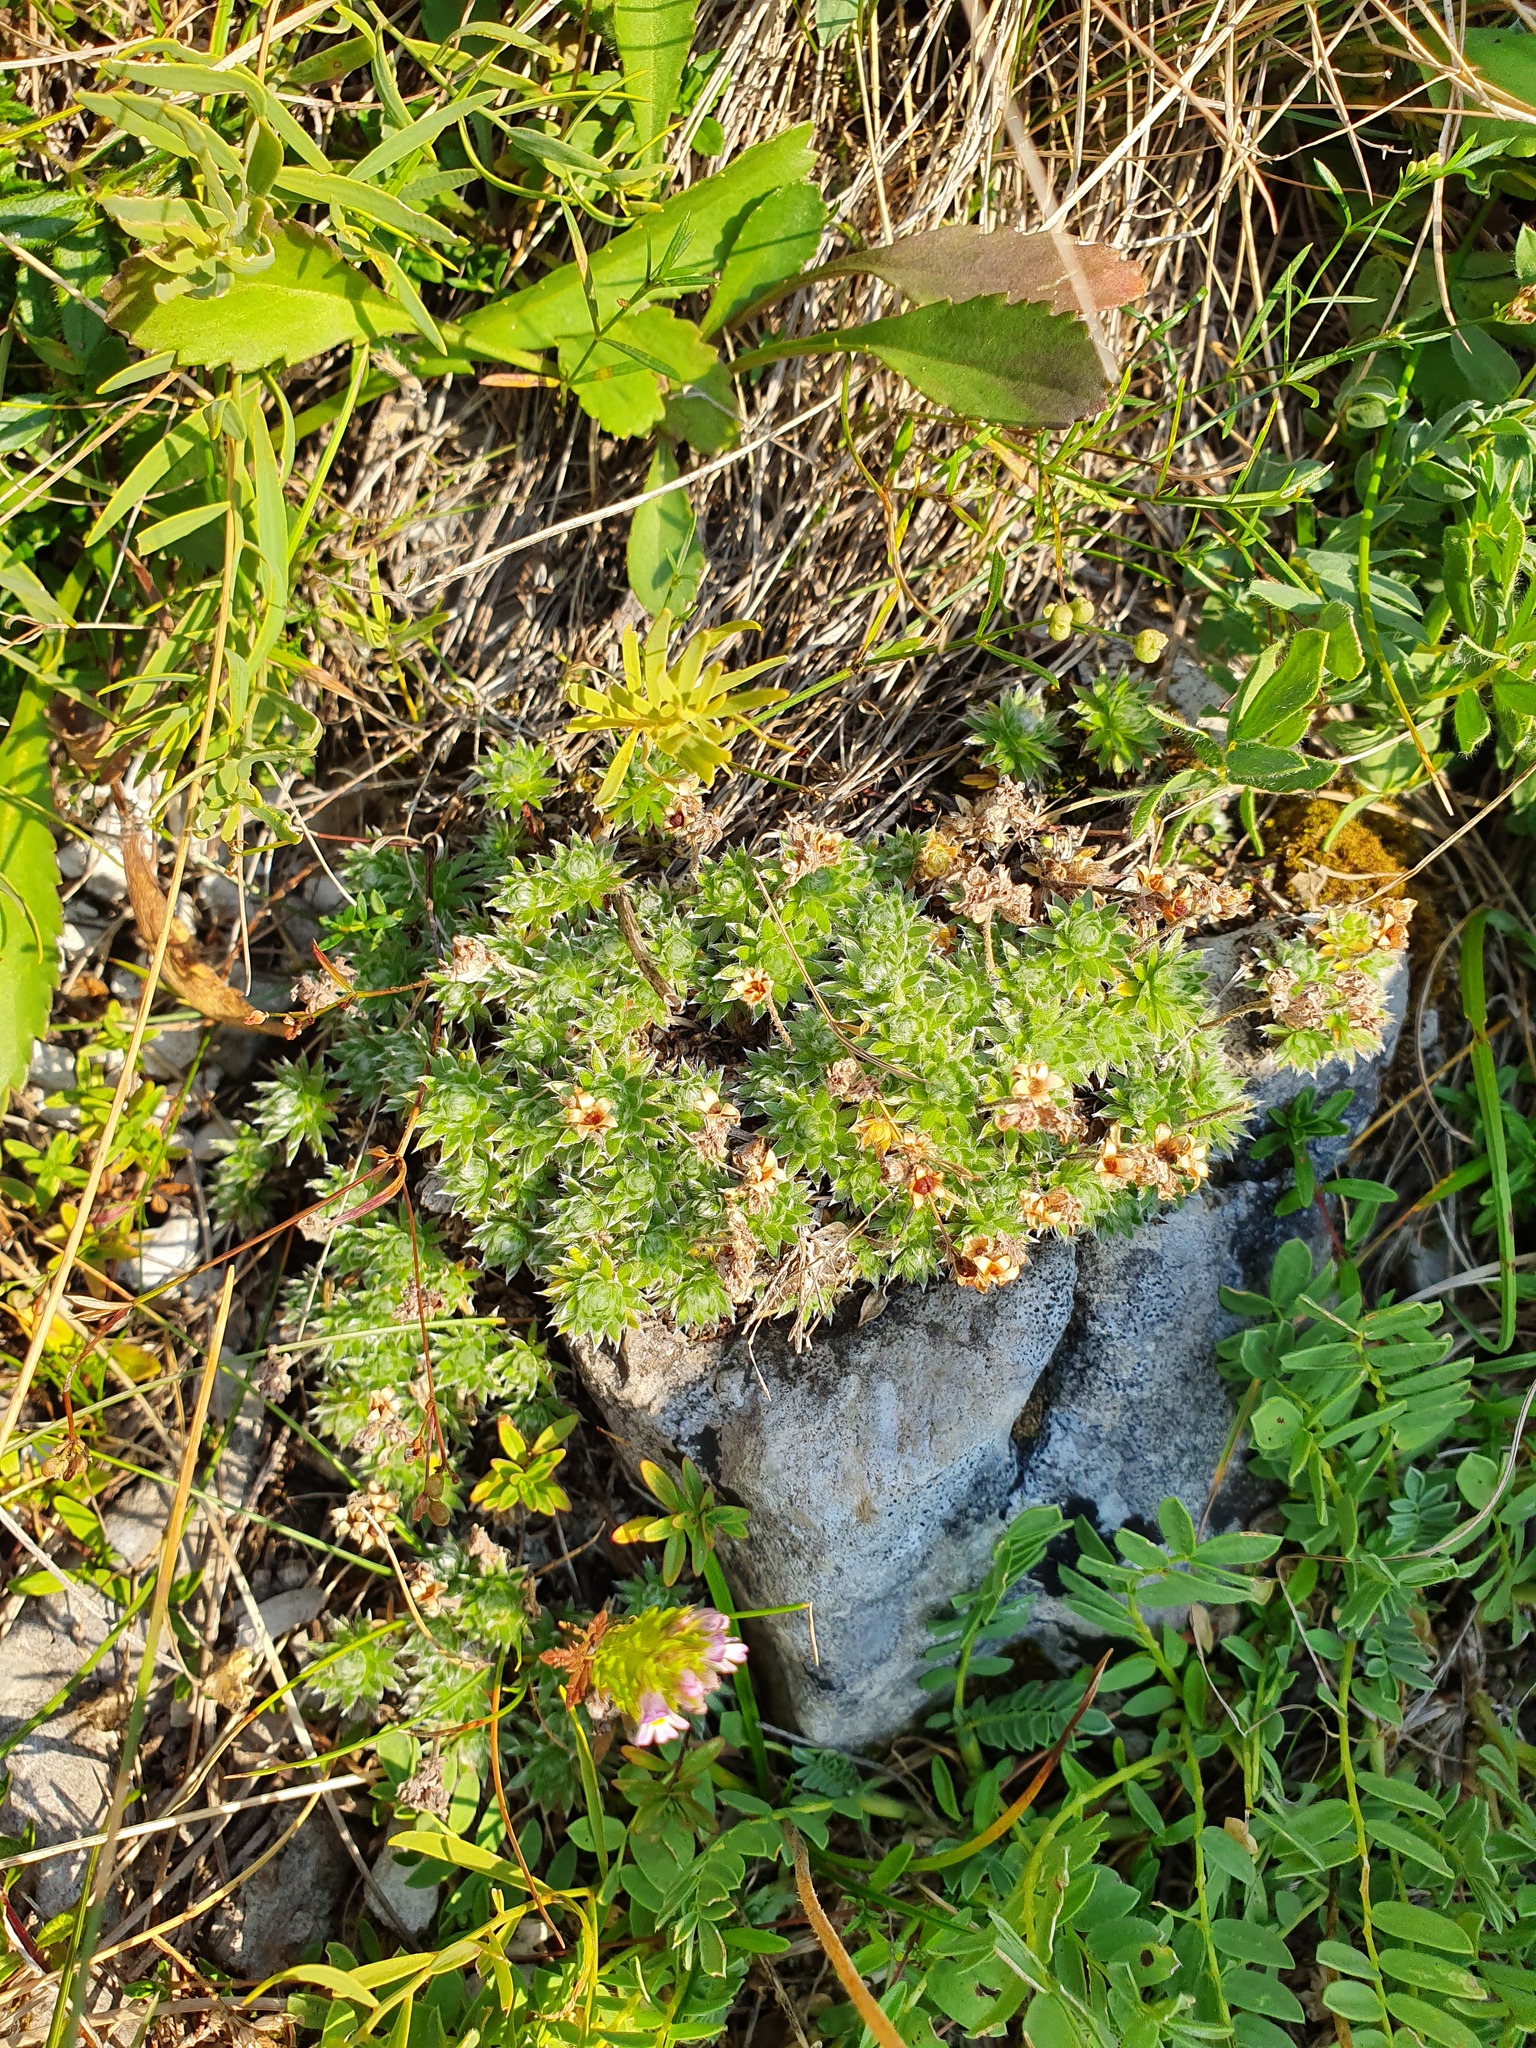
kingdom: Plantae
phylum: Tracheophyta
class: Magnoliopsida
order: Ericales
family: Primulaceae
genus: Androsace
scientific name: Androsace villosa
